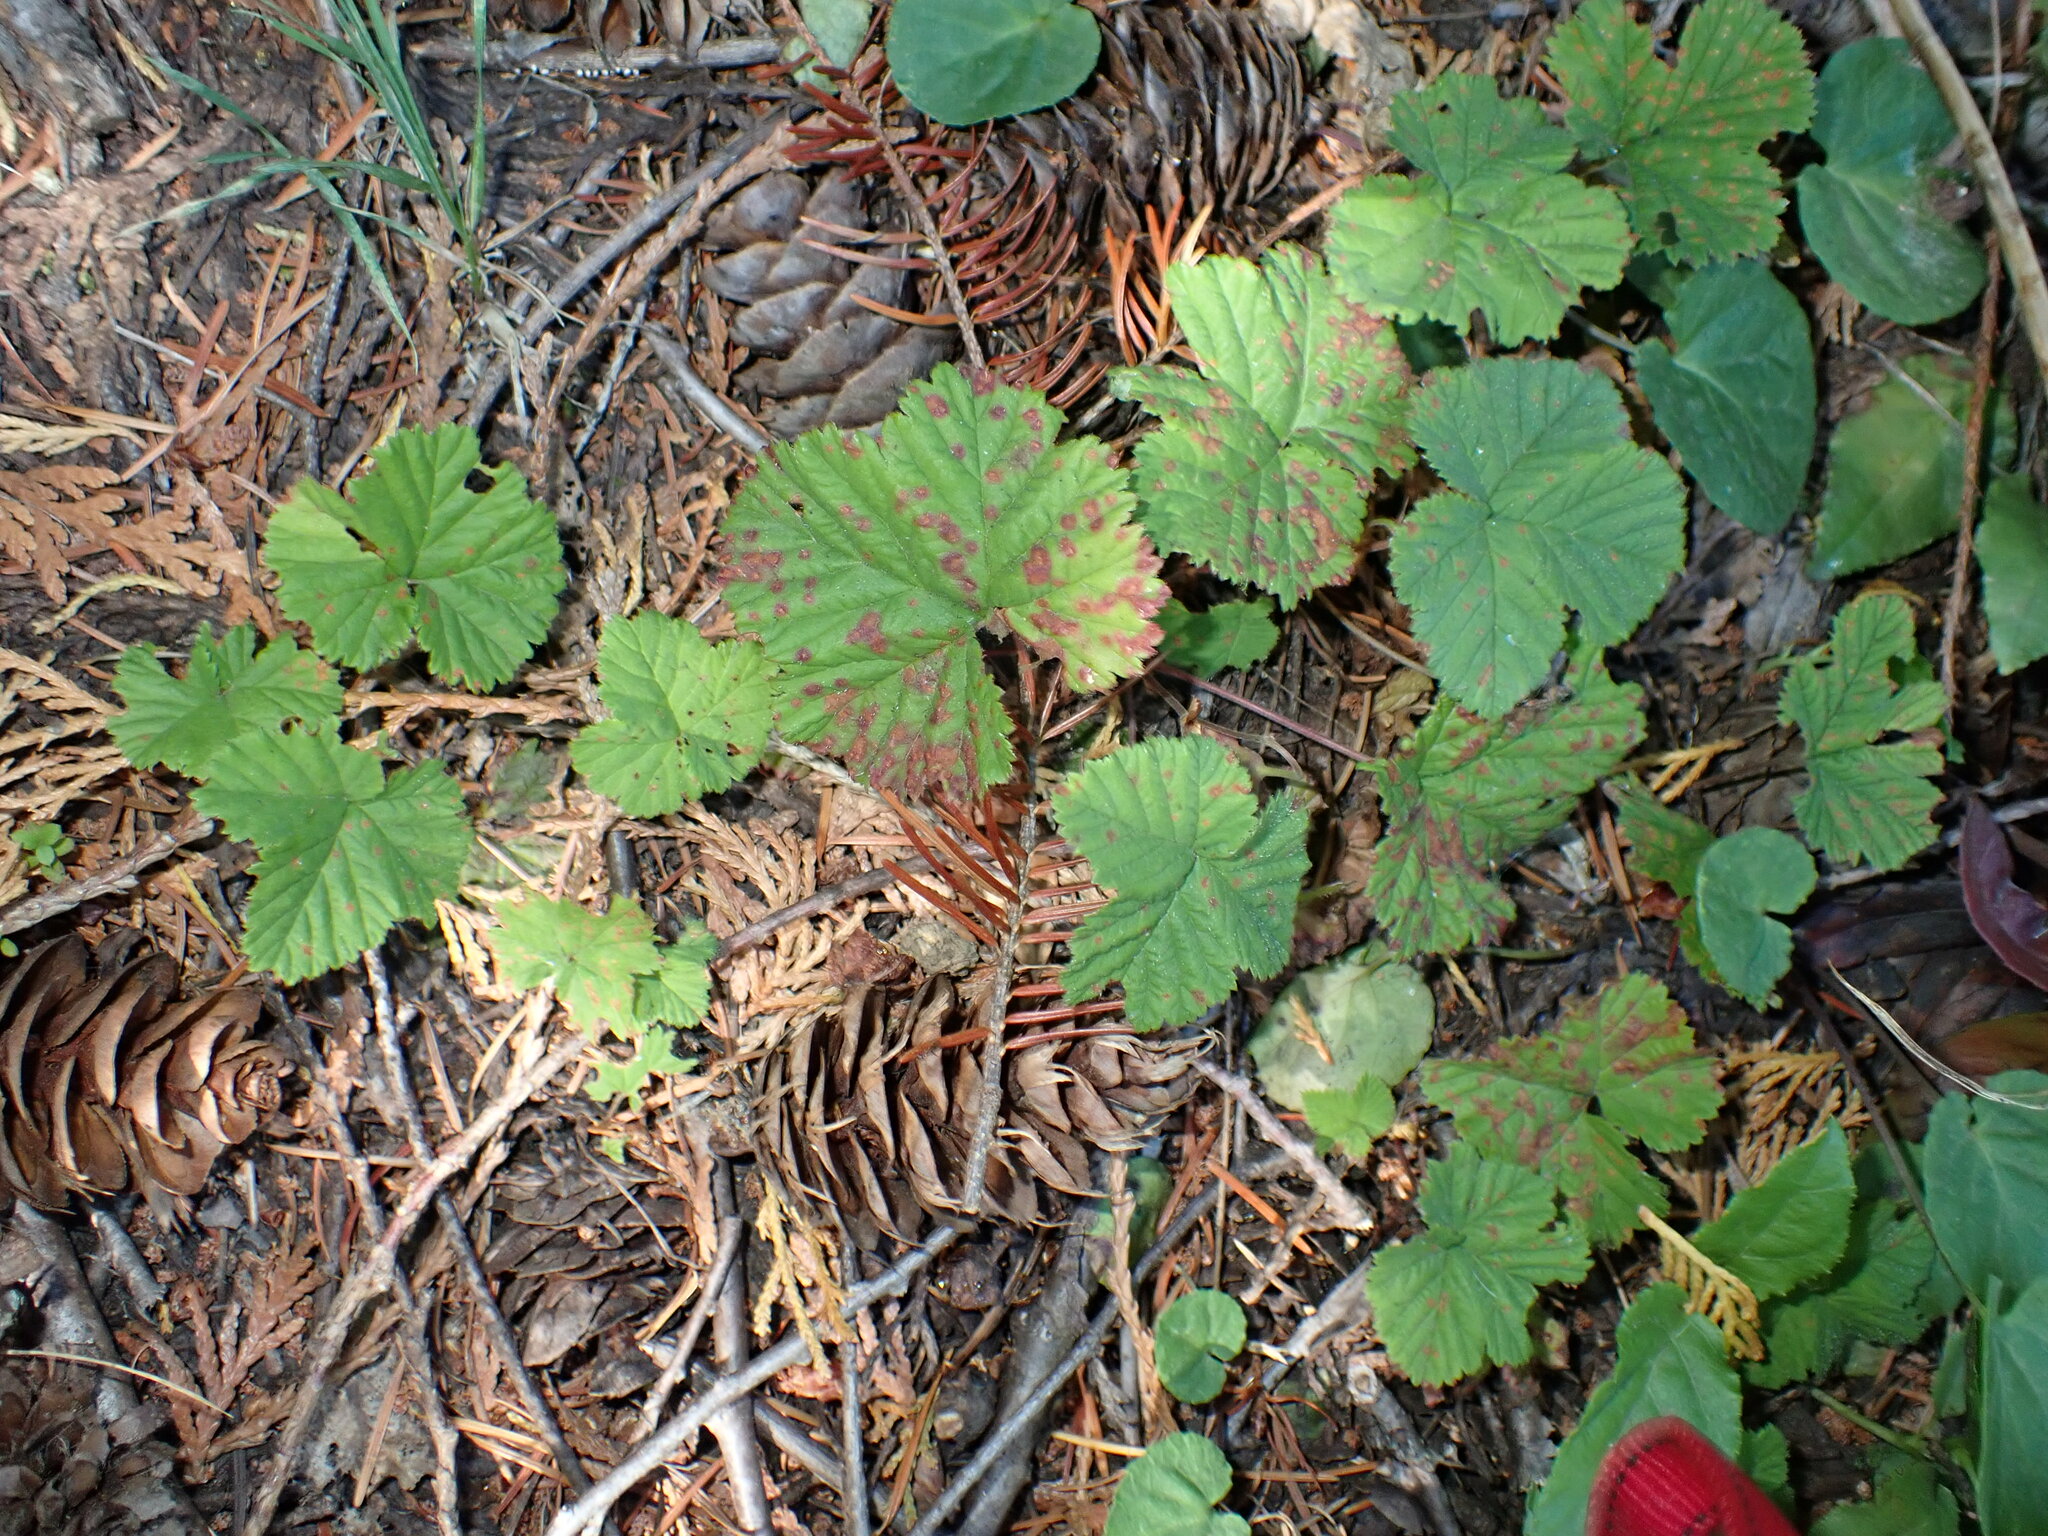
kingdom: Plantae
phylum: Tracheophyta
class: Magnoliopsida
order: Rosales
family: Rosaceae
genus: Rubus
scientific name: Rubus lasiococcus
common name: Dwarf bramble
